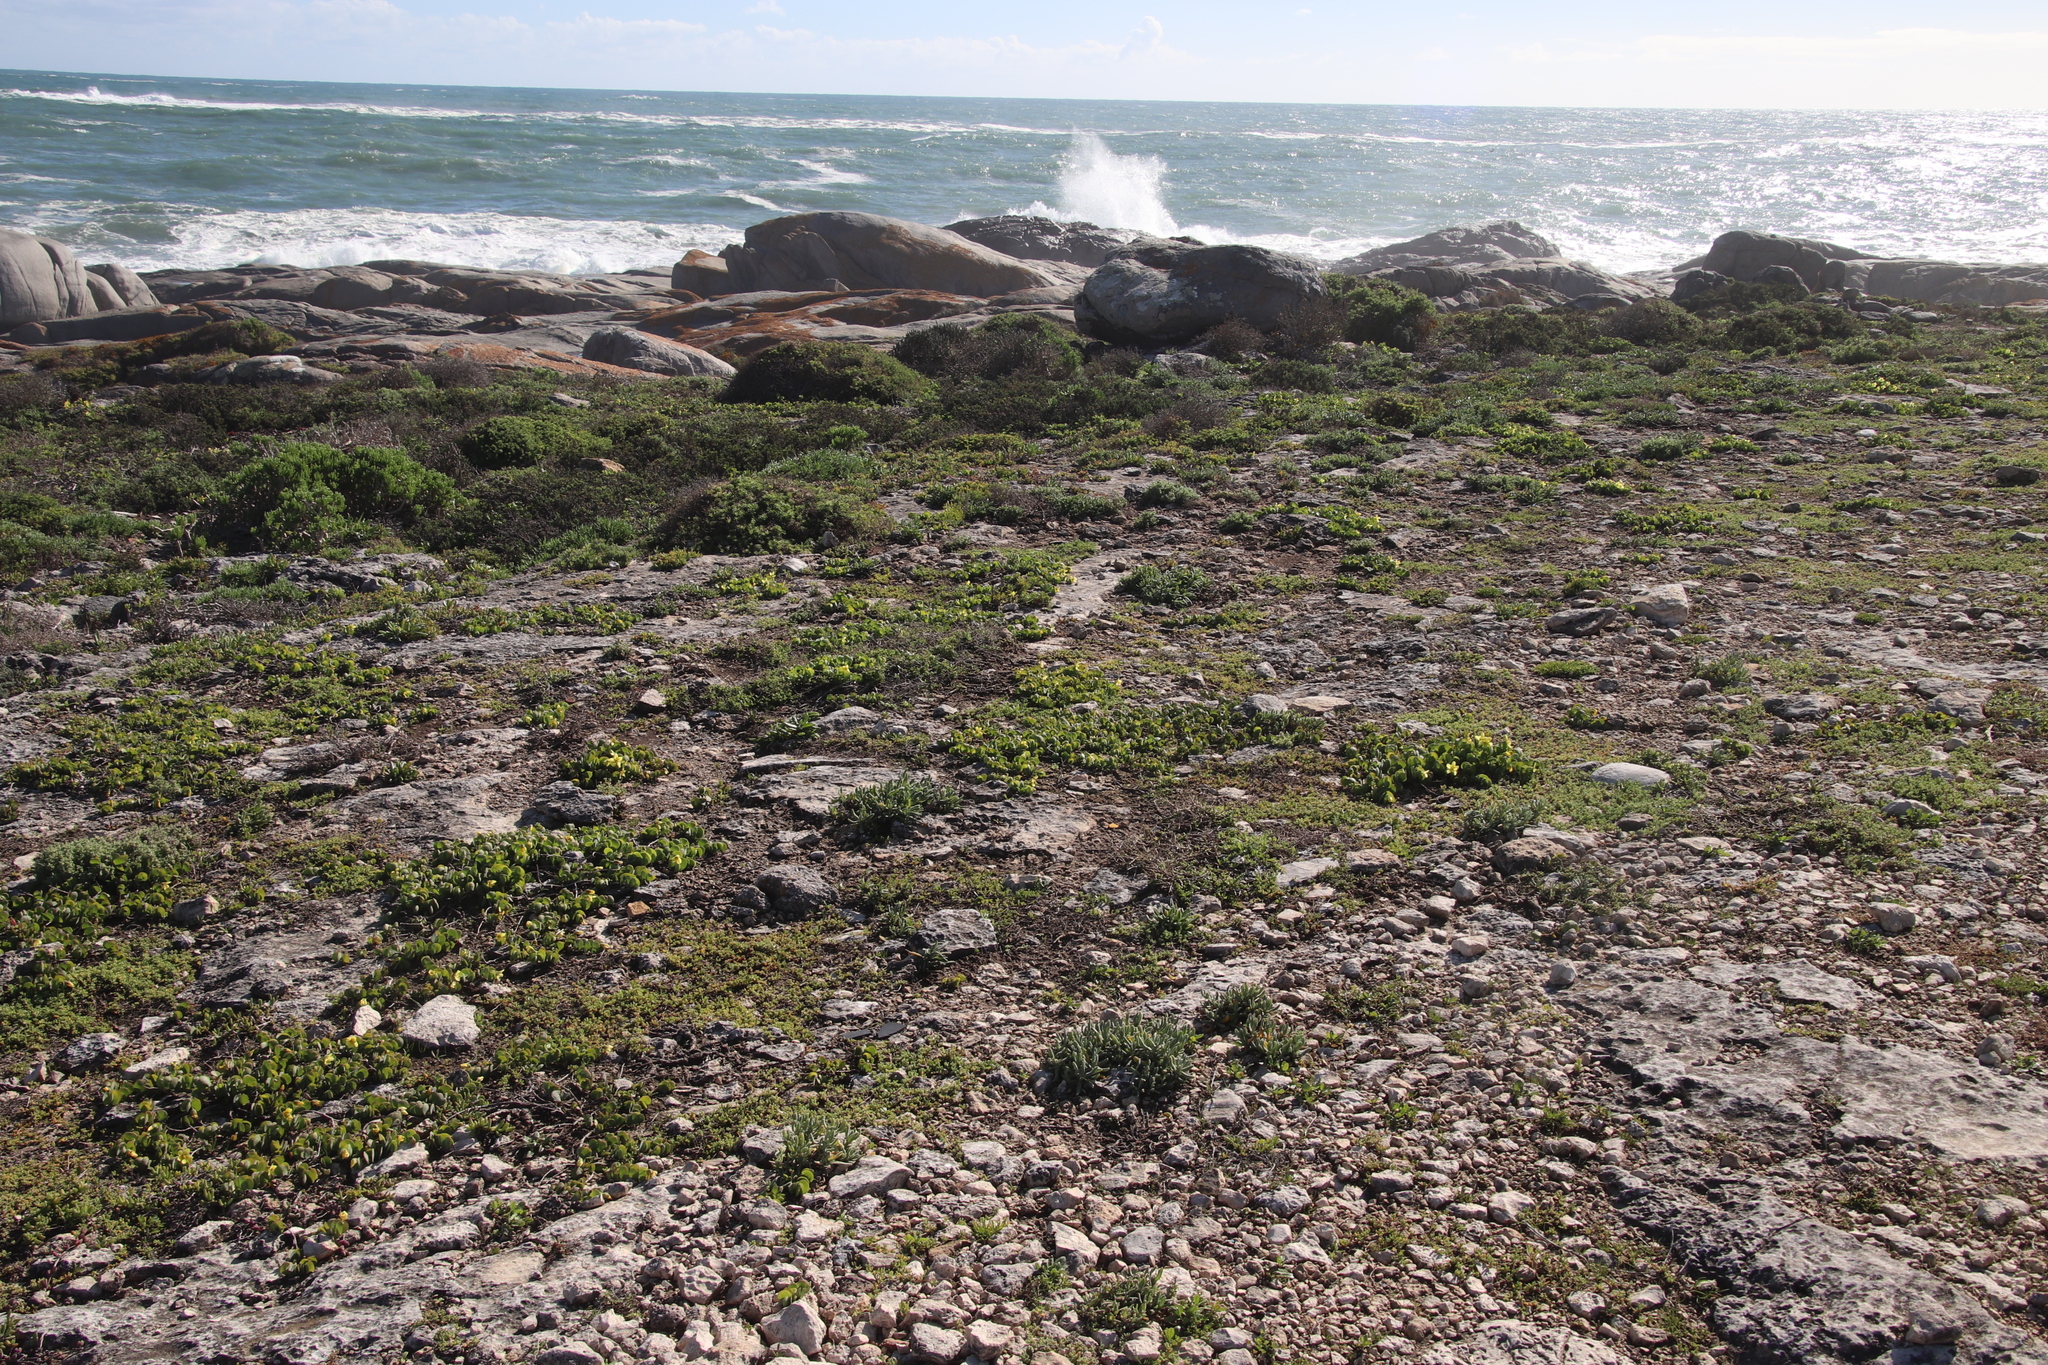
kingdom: Plantae
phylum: Tracheophyta
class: Magnoliopsida
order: Zygophyllales
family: Zygophyllaceae
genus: Roepera
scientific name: Roepera cordifolia
